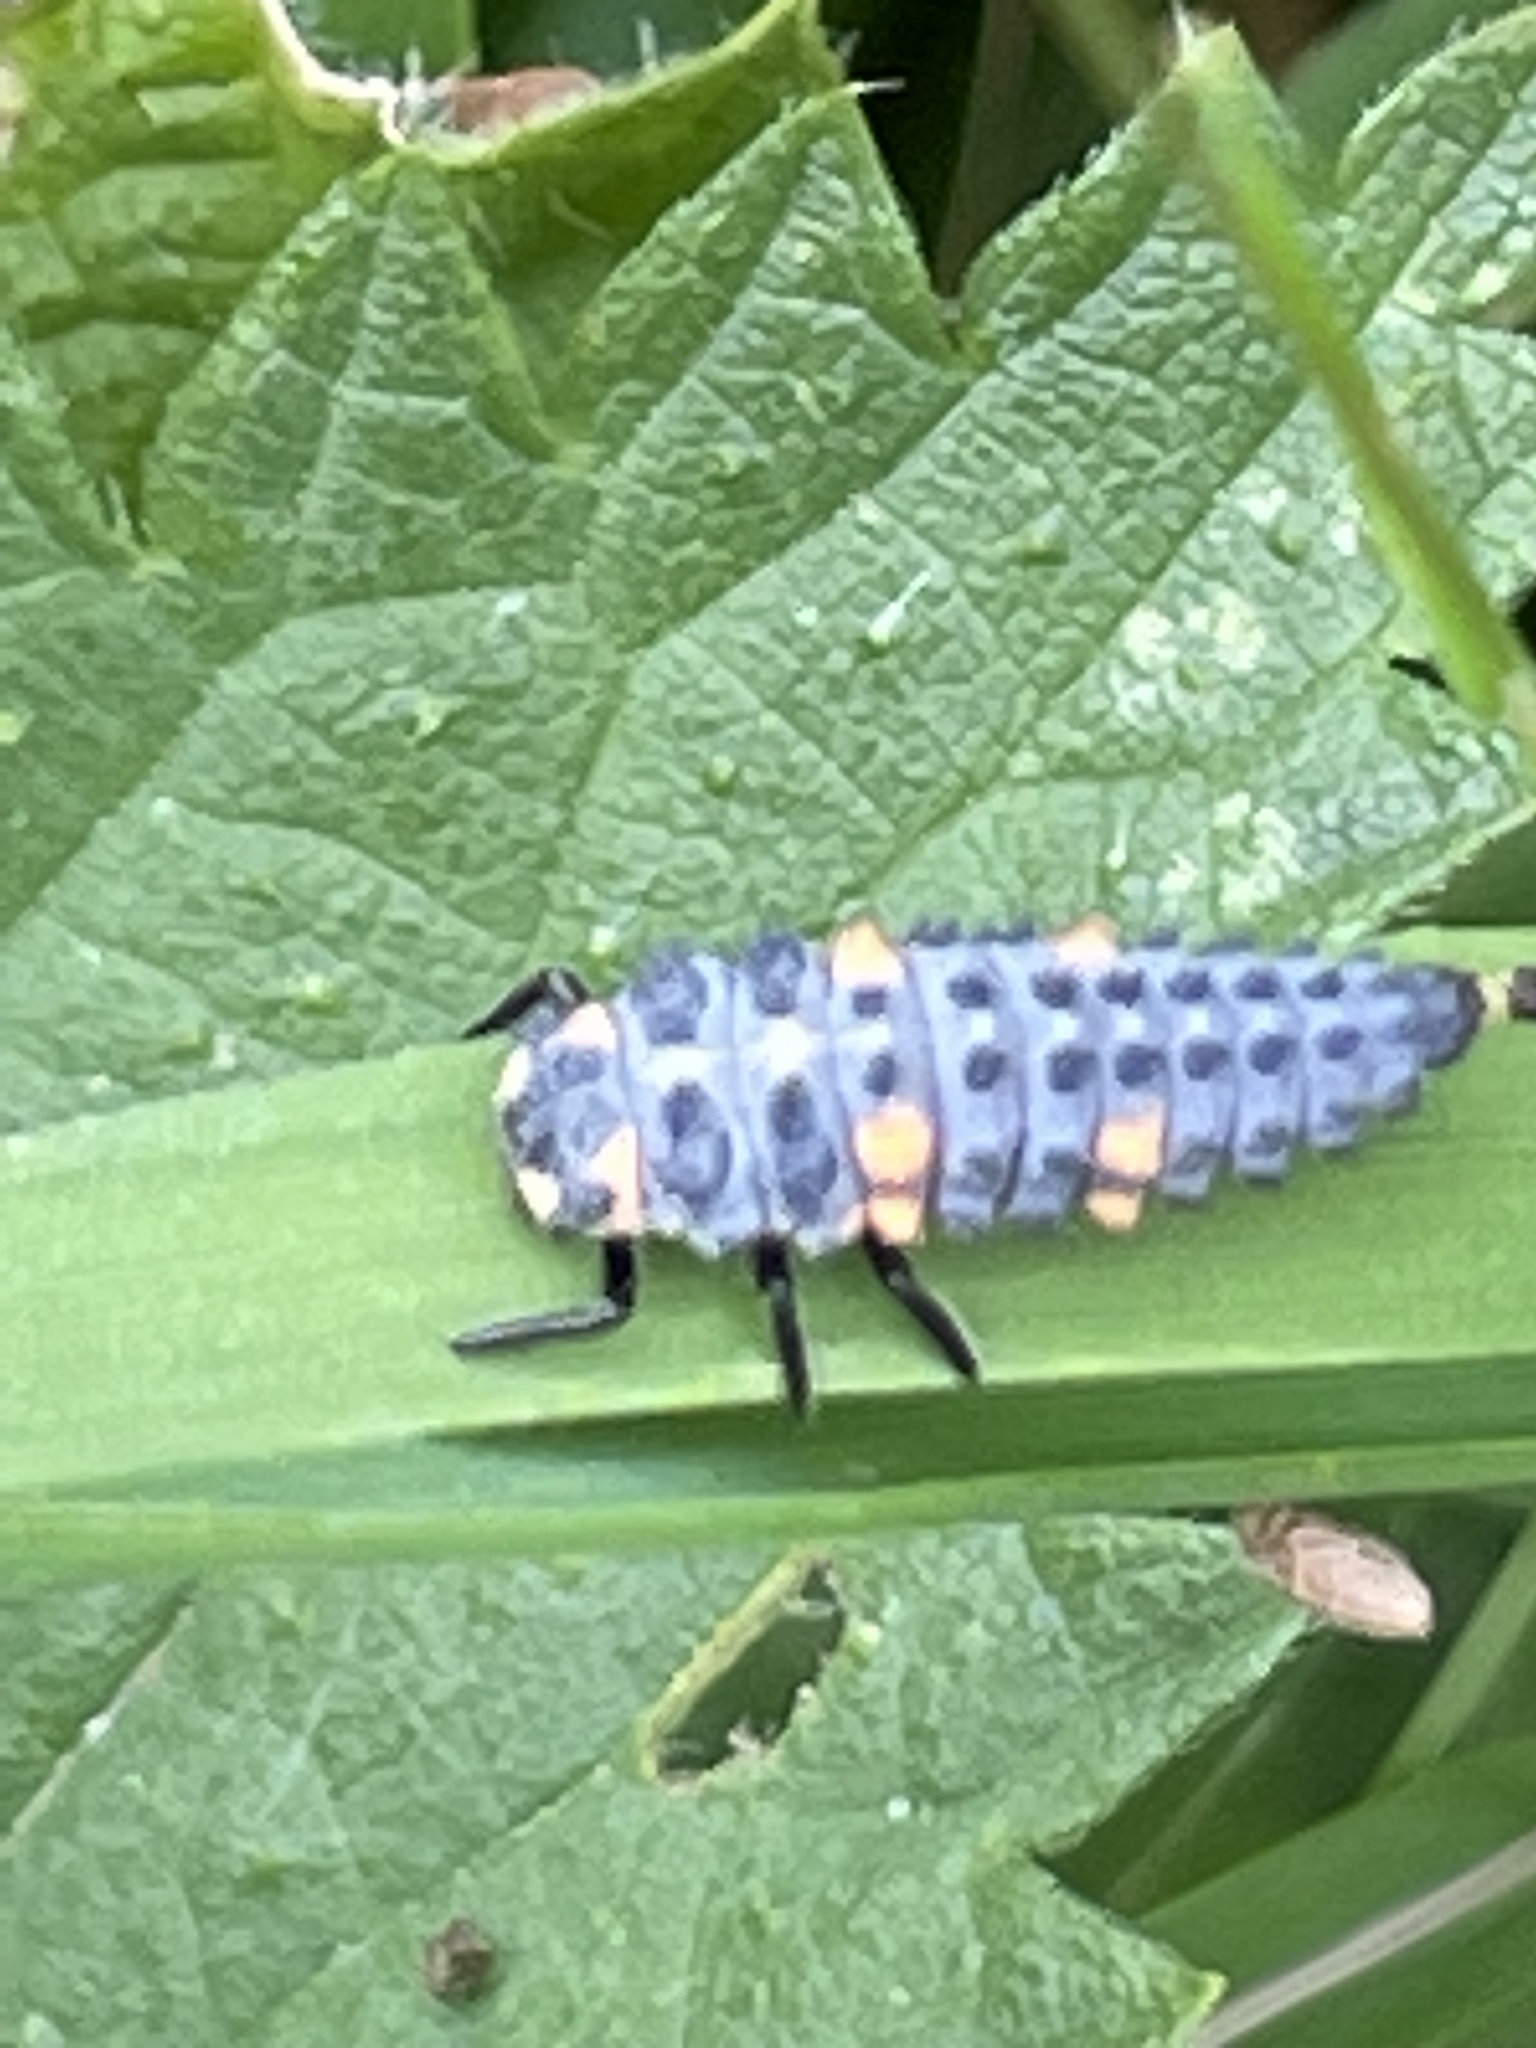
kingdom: Animalia
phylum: Arthropoda
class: Insecta
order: Coleoptera
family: Coccinellidae
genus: Coccinella
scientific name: Coccinella septempunctata
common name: Sevenspotted lady beetle
